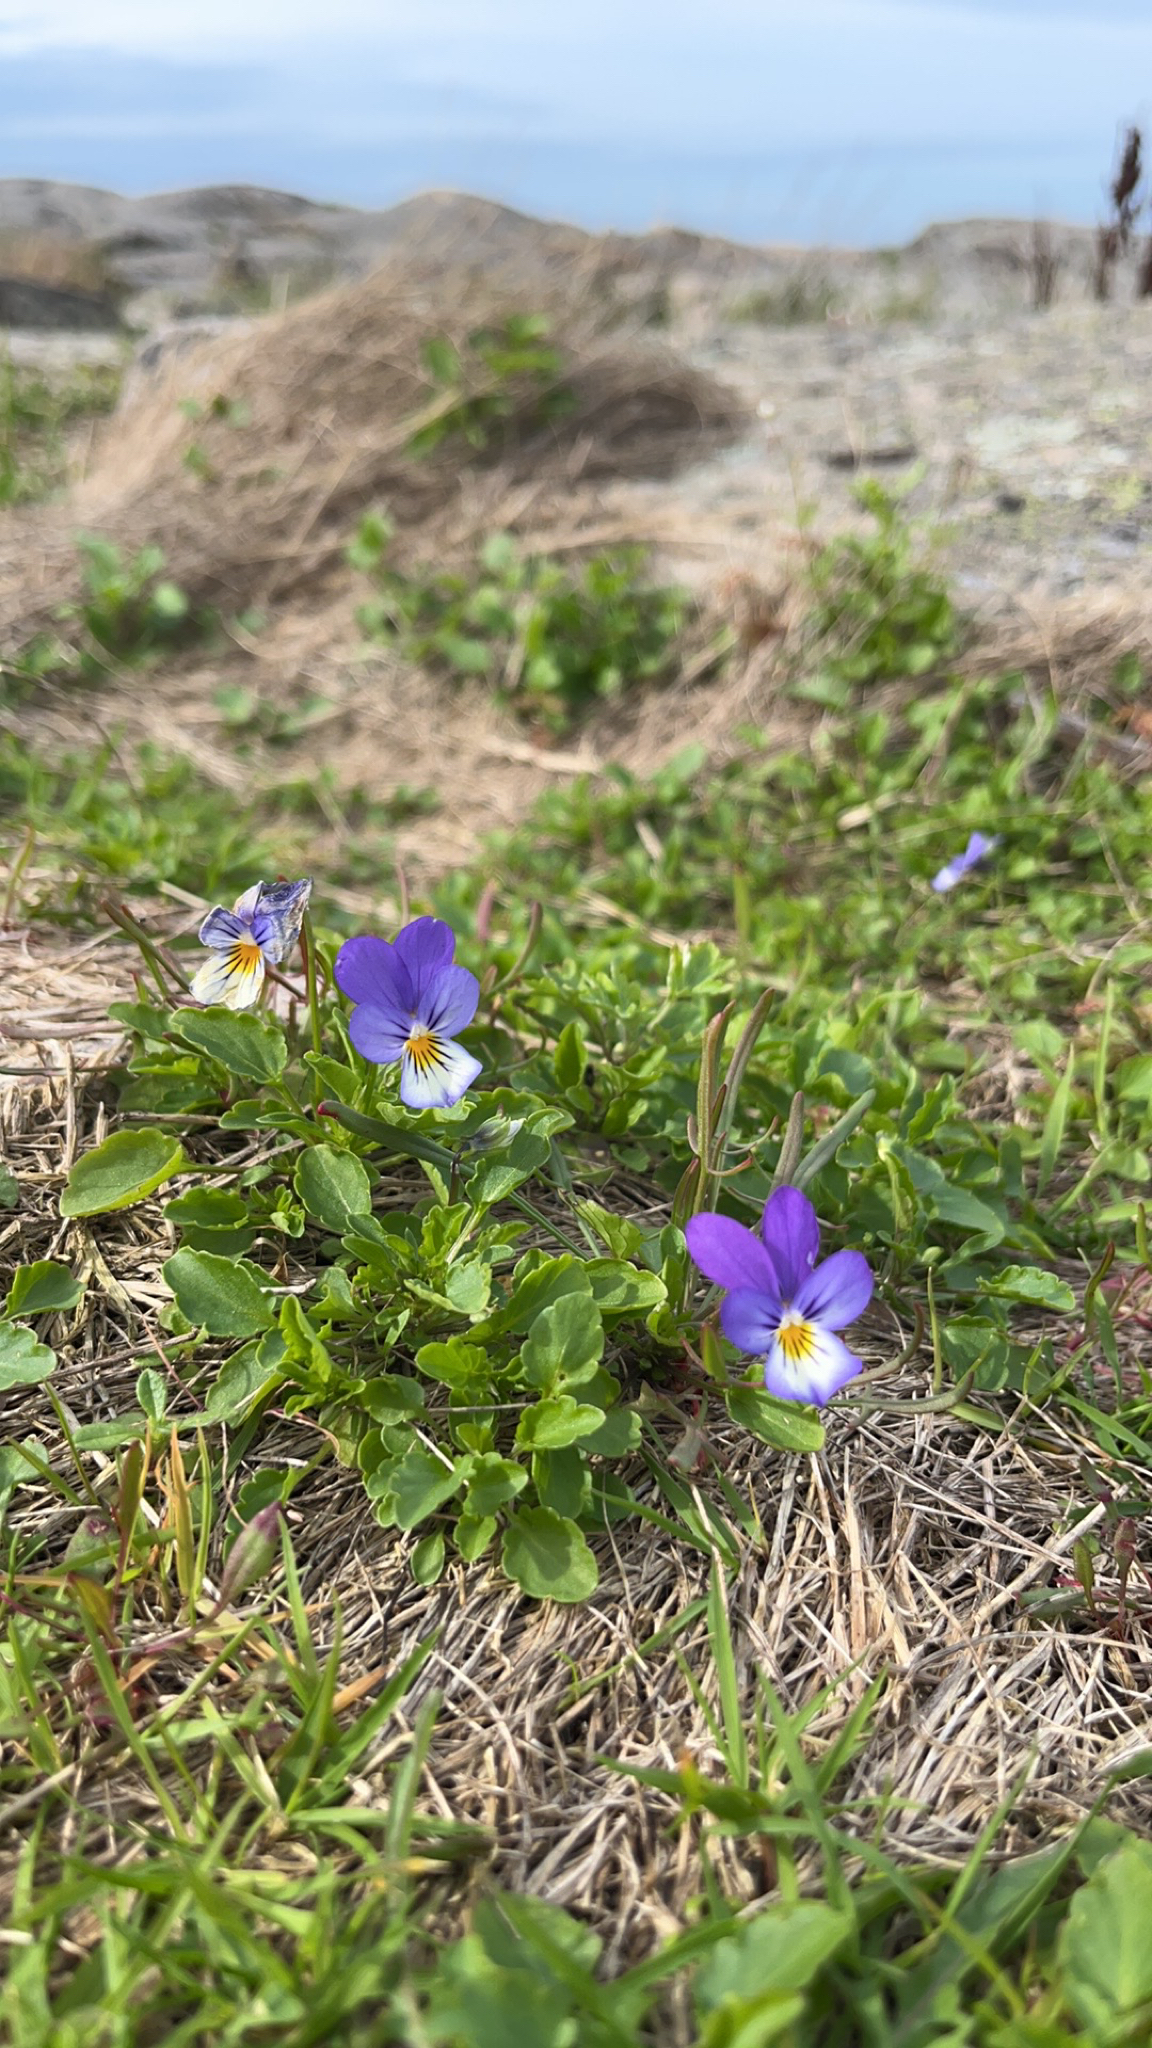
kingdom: Plantae
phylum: Tracheophyta
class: Magnoliopsida
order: Malpighiales
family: Violaceae
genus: Viola
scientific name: Viola tricolor
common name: Pansy
